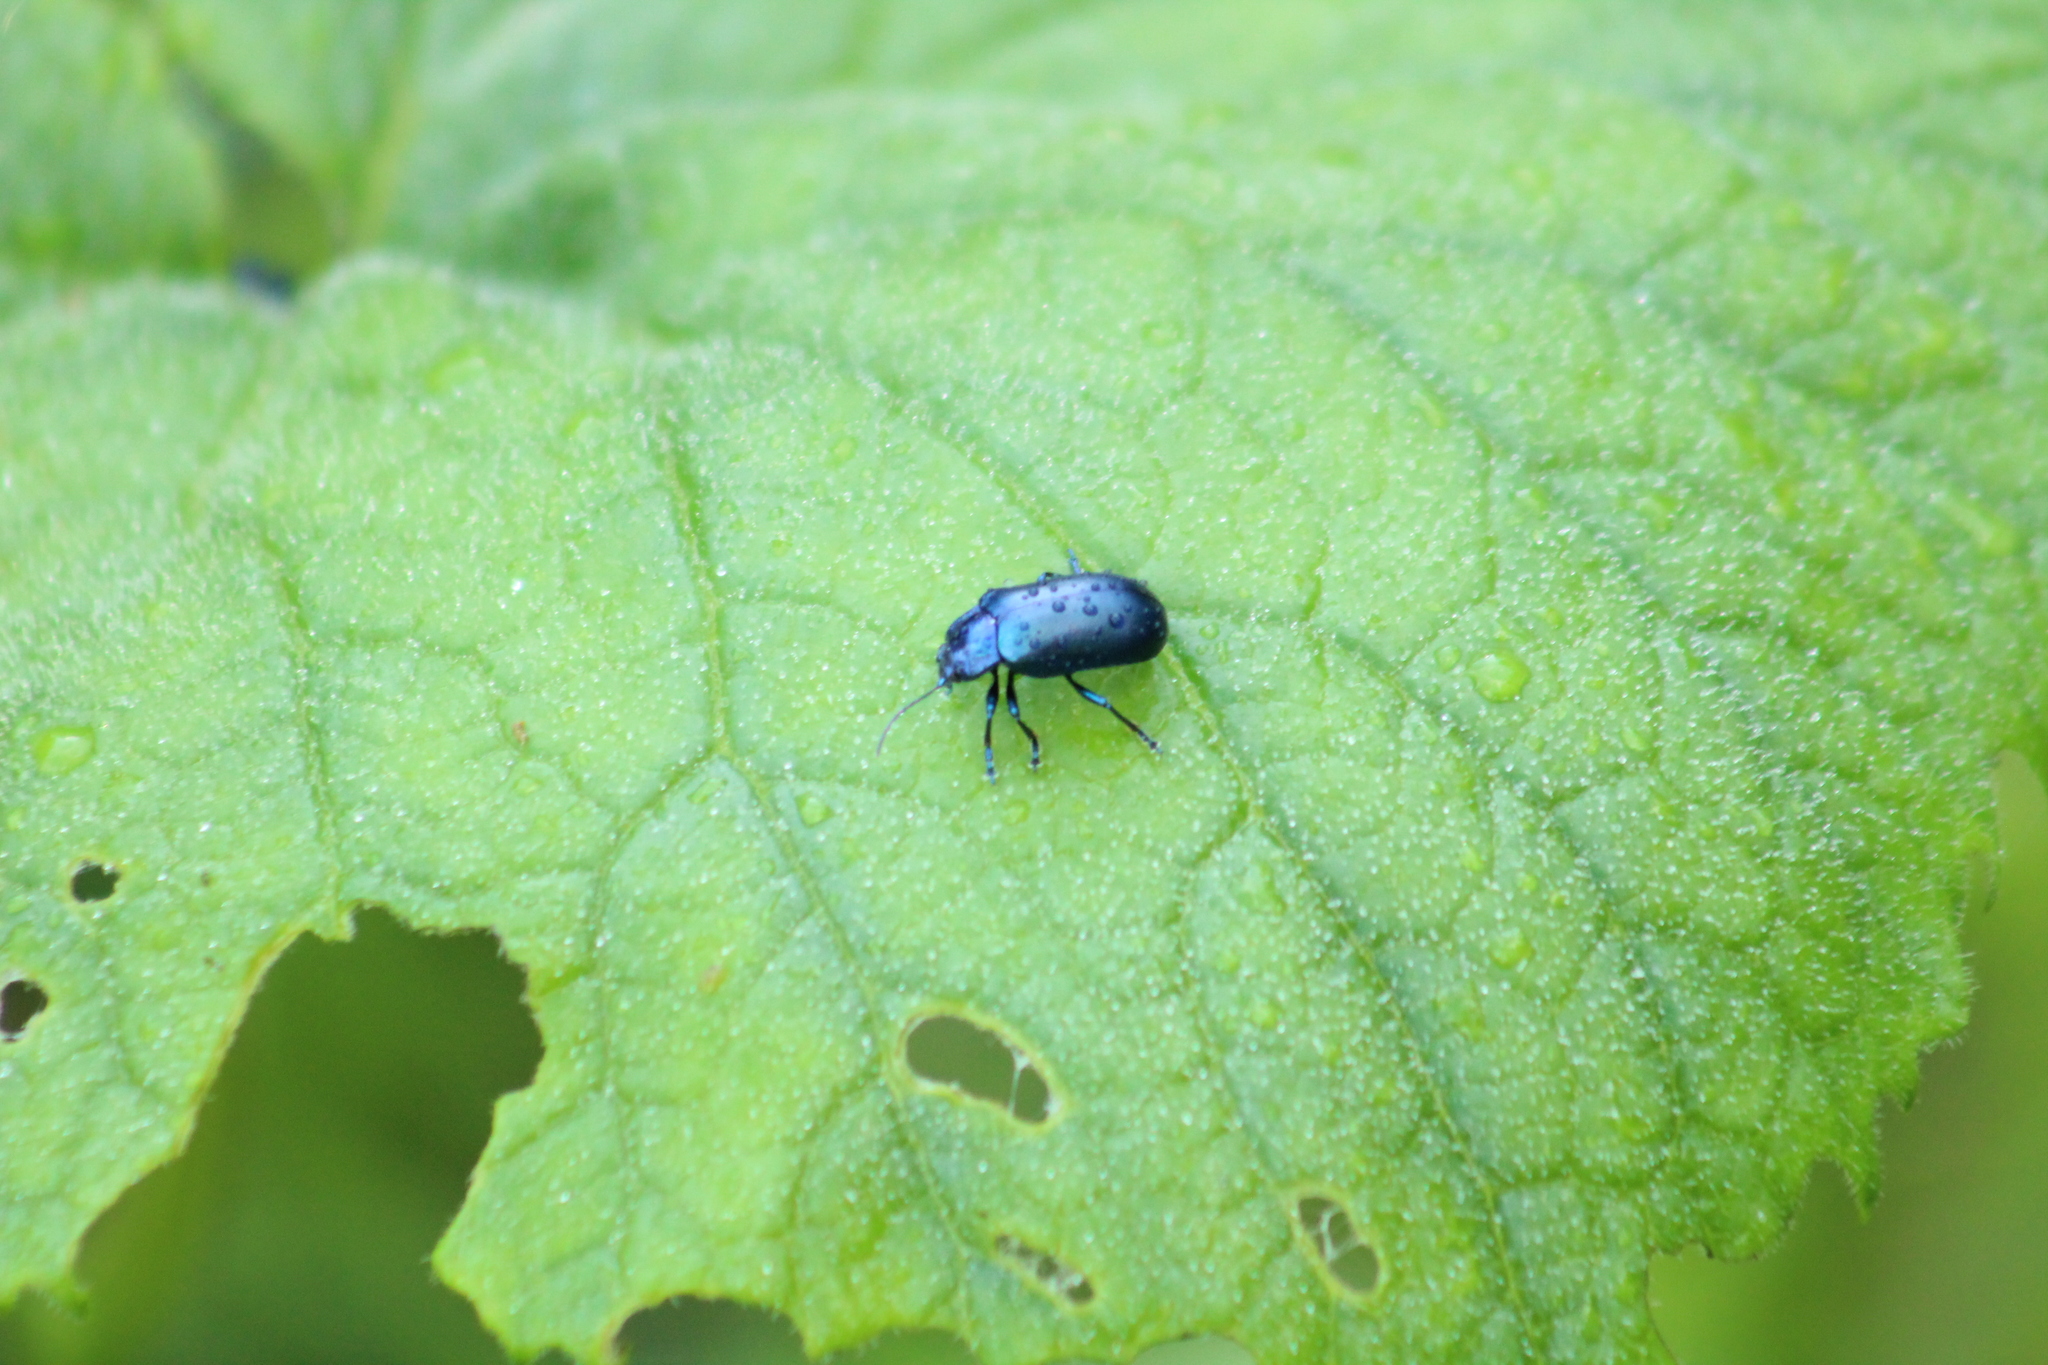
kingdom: Animalia
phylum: Arthropoda
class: Insecta
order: Coleoptera
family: Chrysomelidae
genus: Oreina
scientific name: Oreina cacaliae
